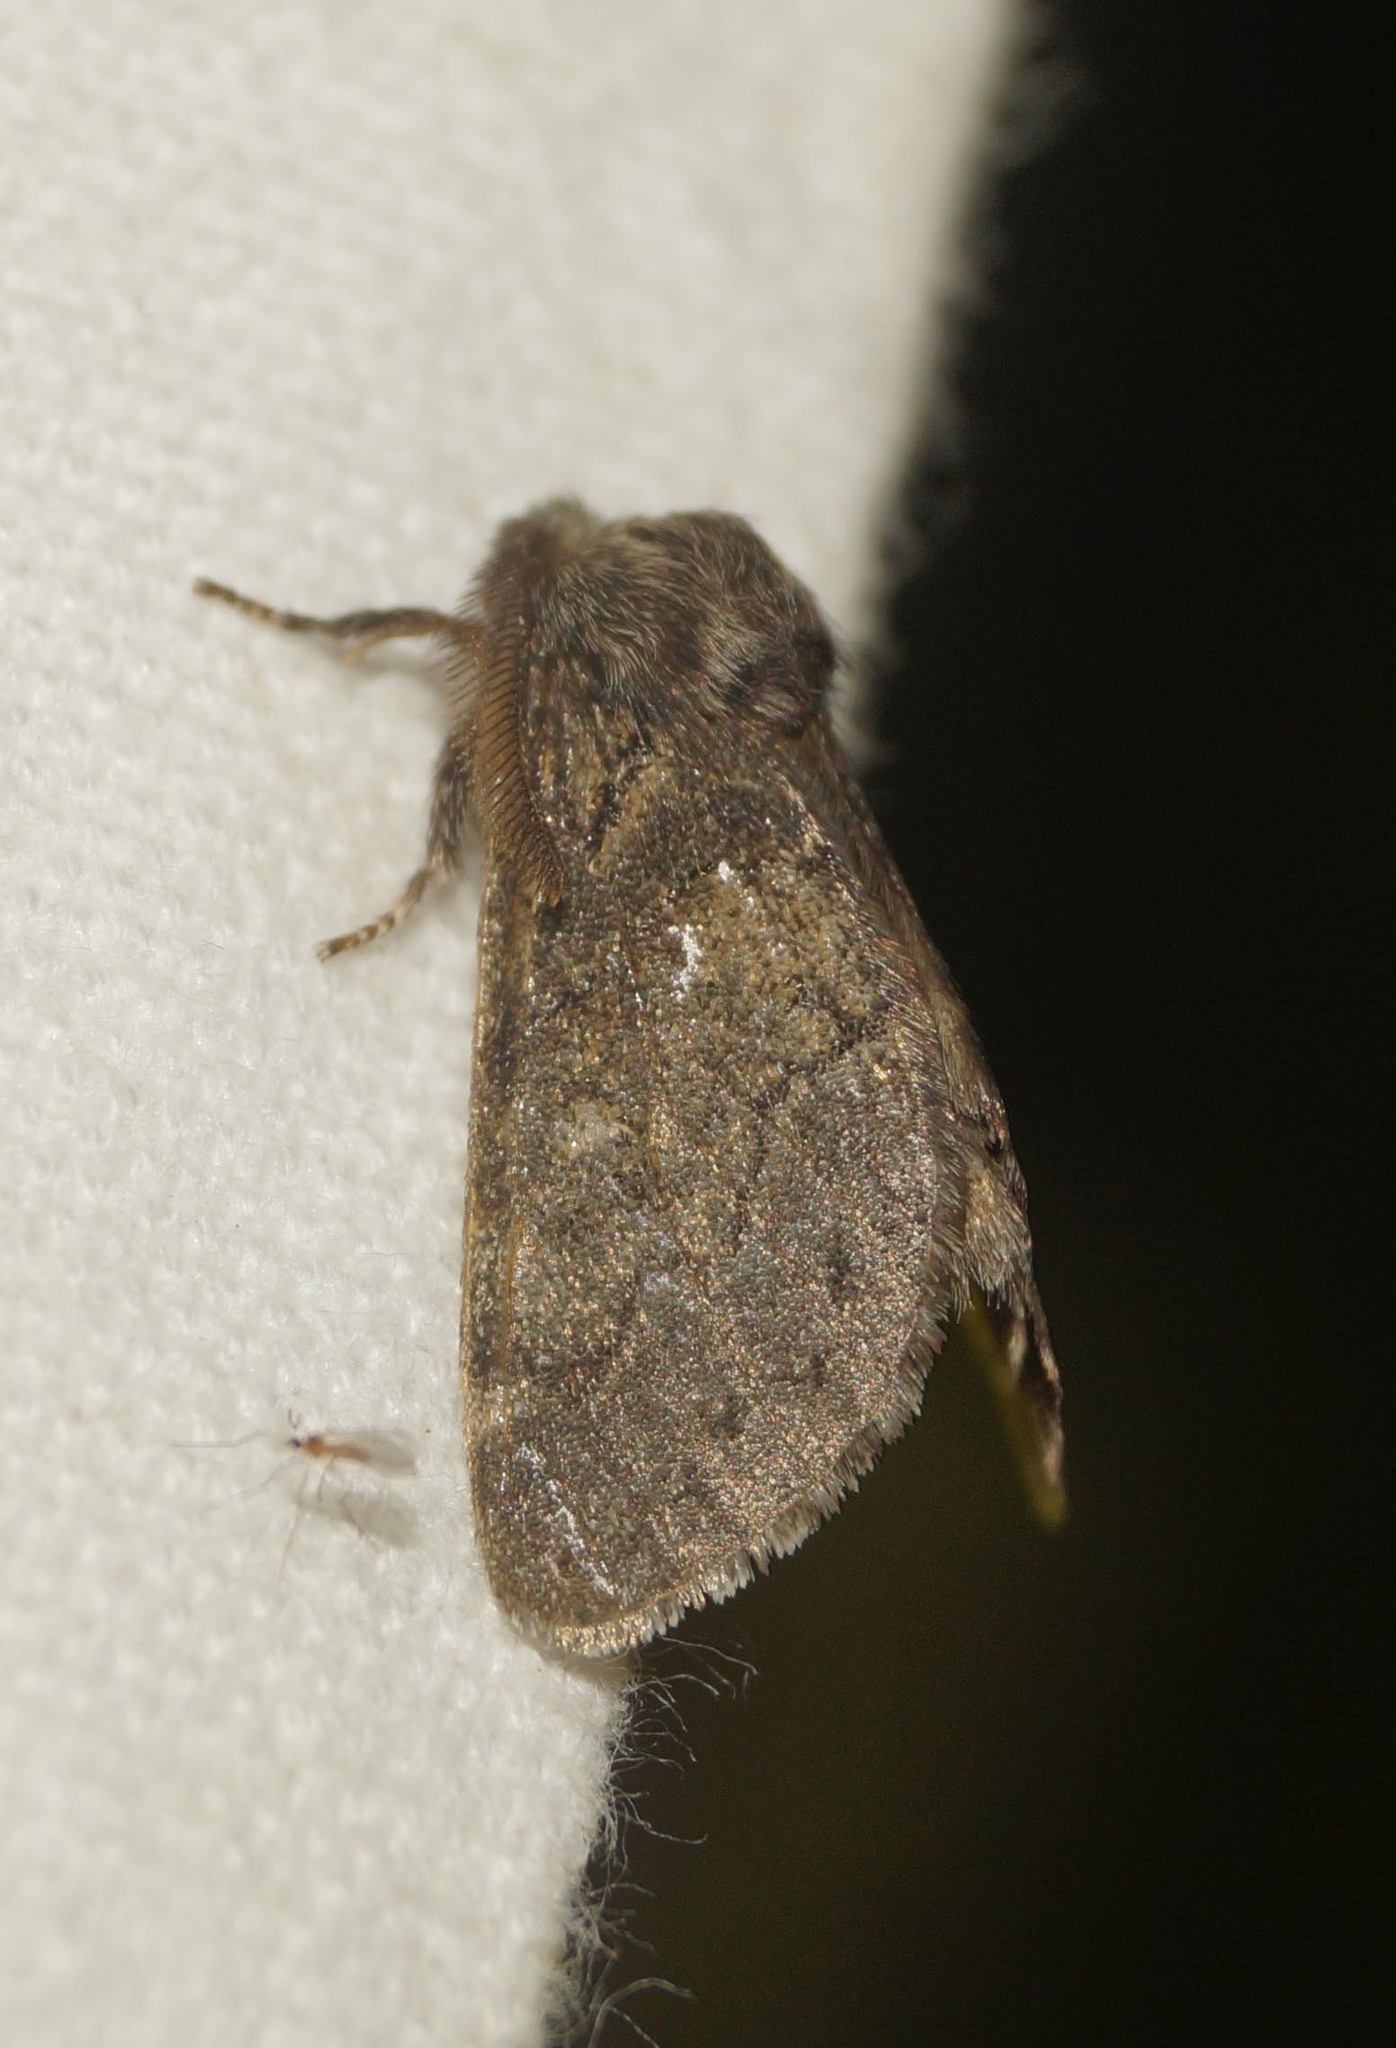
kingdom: Animalia
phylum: Arthropoda
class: Insecta
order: Lepidoptera
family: Notodontidae
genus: Gluphisia
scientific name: Gluphisia crenata
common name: Dusky marbled brown
